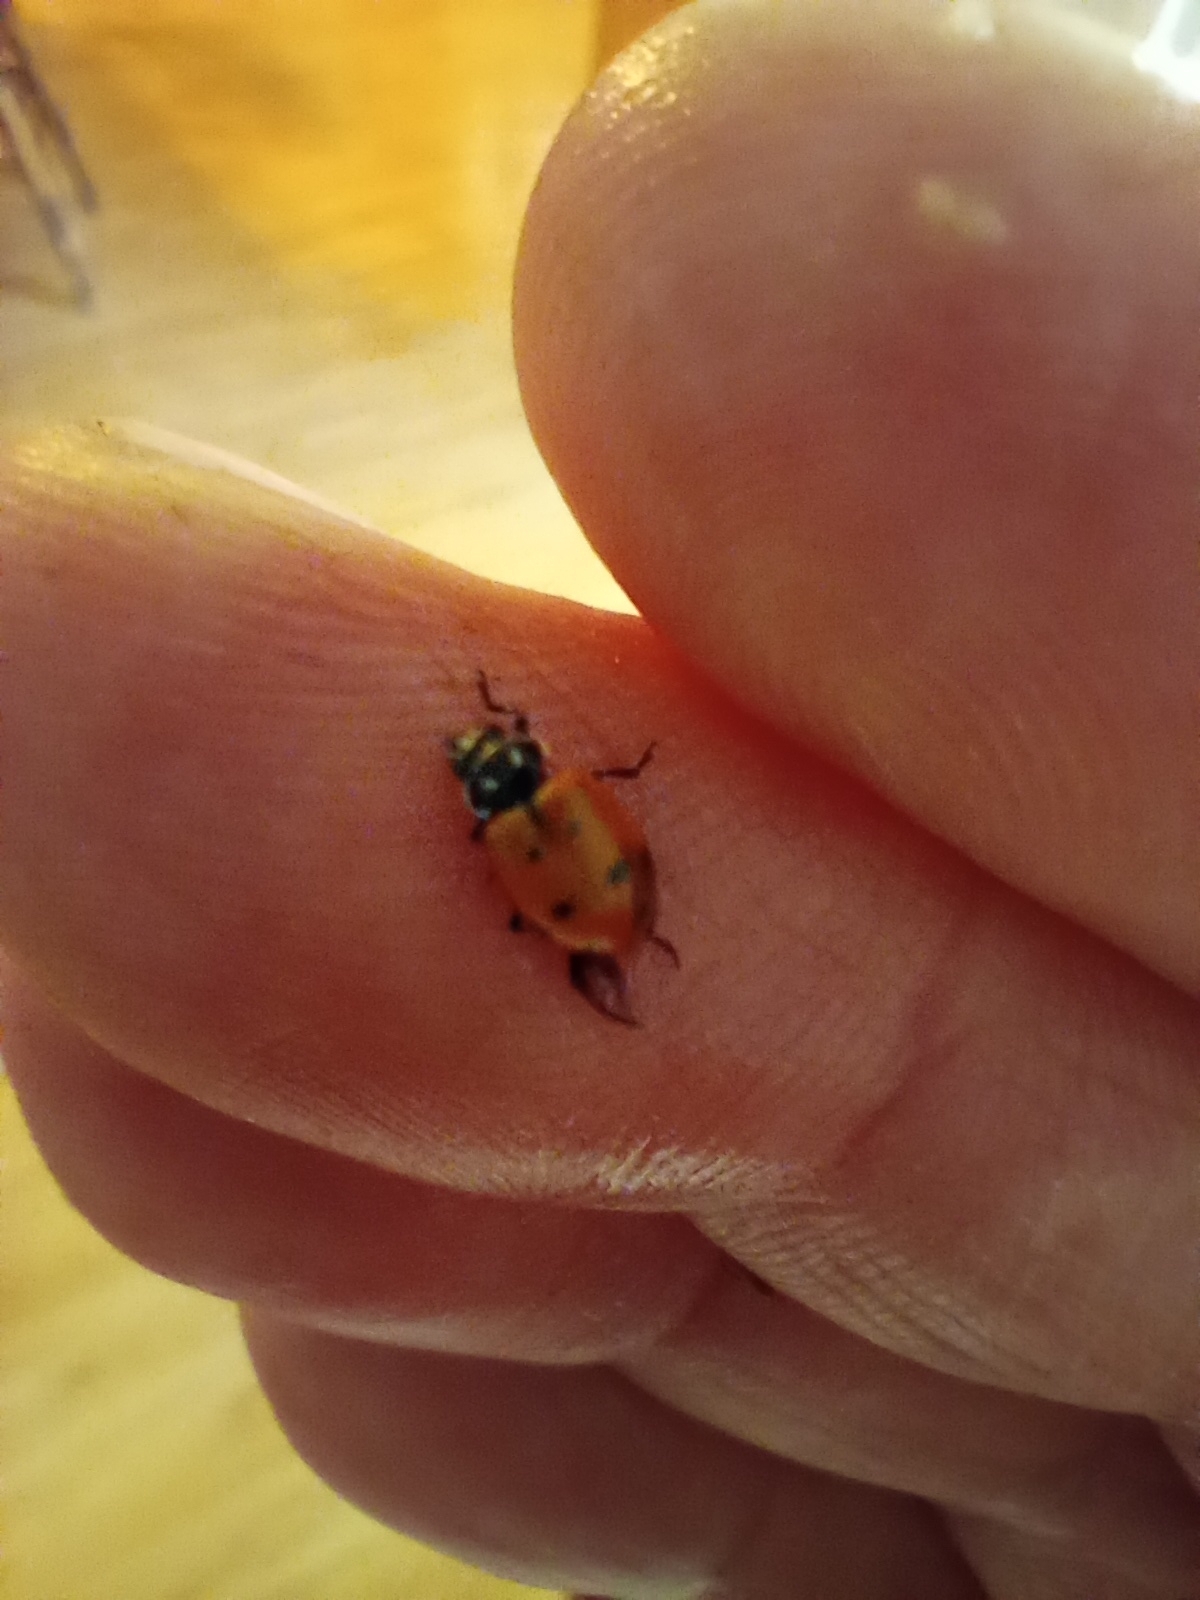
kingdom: Animalia
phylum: Arthropoda
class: Insecta
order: Coleoptera
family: Coccinellidae
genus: Hippodamia
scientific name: Hippodamia convergens
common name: Convergent lady beetle
